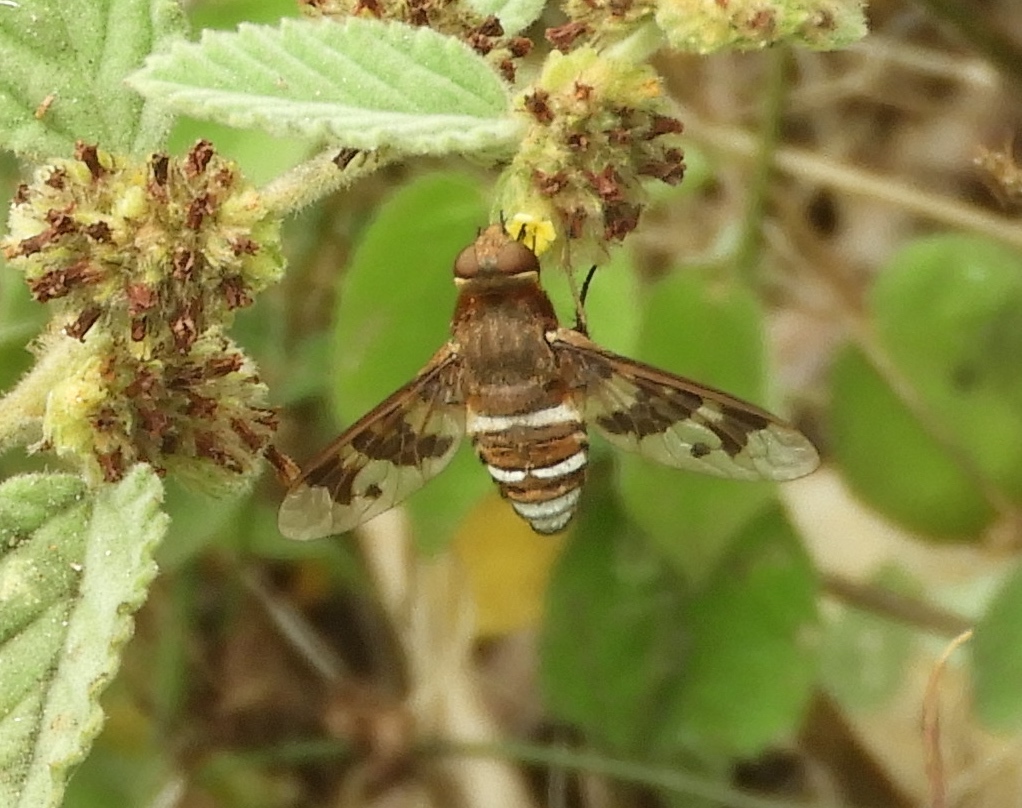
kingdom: Animalia
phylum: Arthropoda
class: Insecta
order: Diptera
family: Bombyliidae
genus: Exoprosopa
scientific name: Exoprosopa iota
